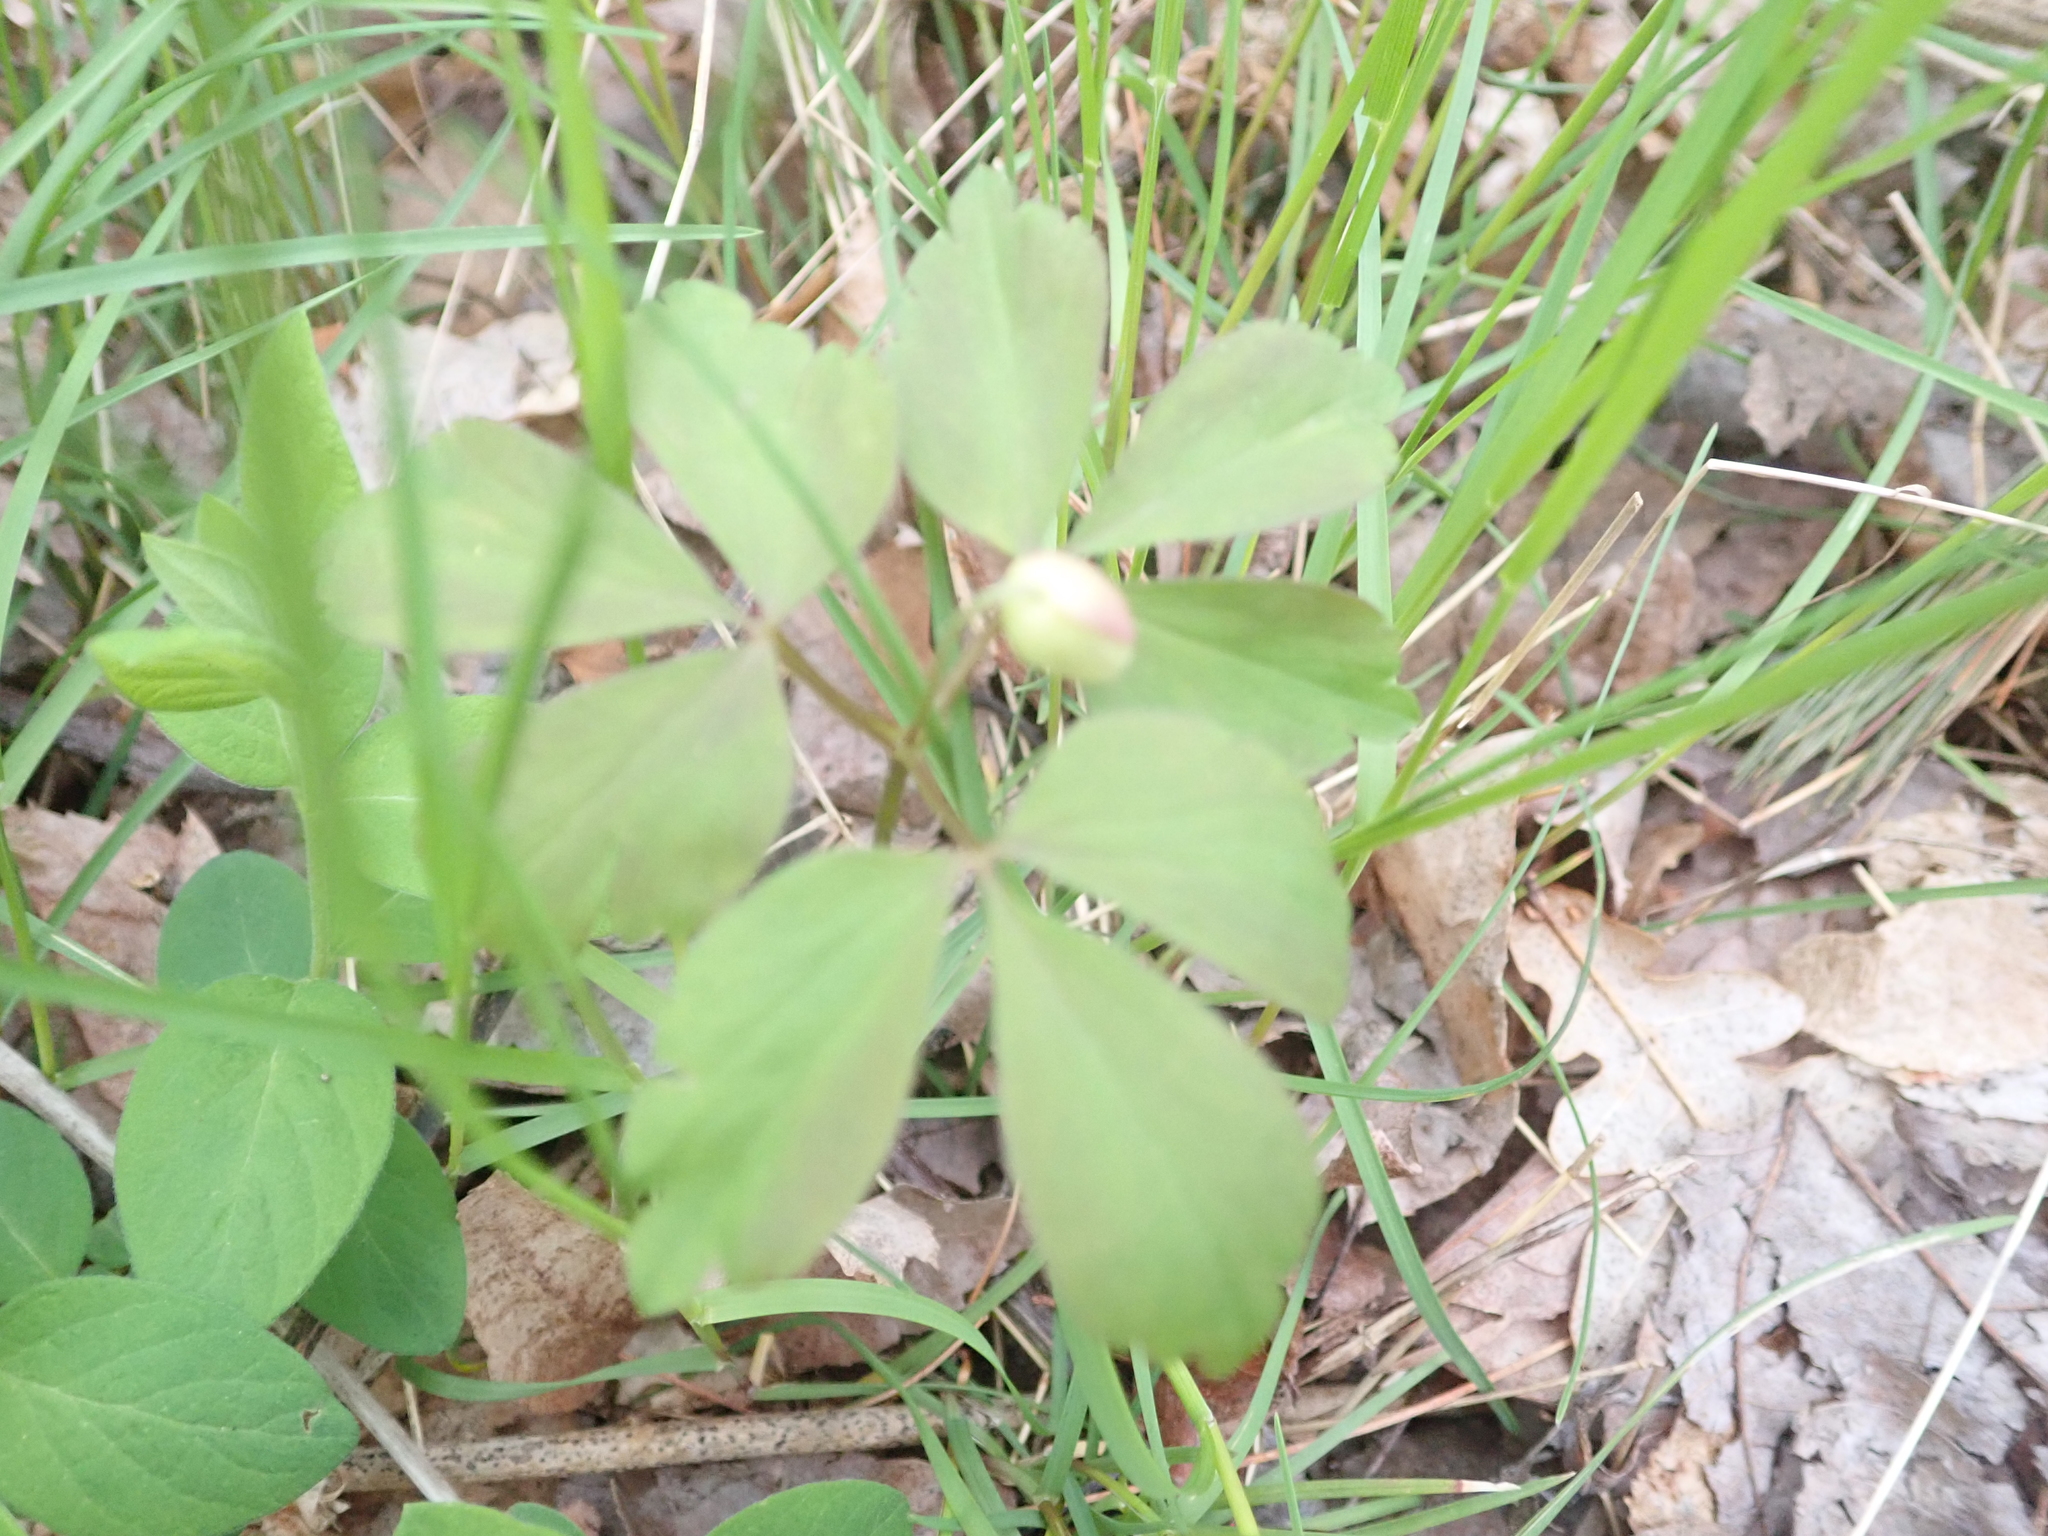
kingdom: Plantae
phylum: Tracheophyta
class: Magnoliopsida
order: Ranunculales
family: Ranunculaceae
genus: Anemone
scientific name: Anemone quinquefolia
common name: Wood anemone
